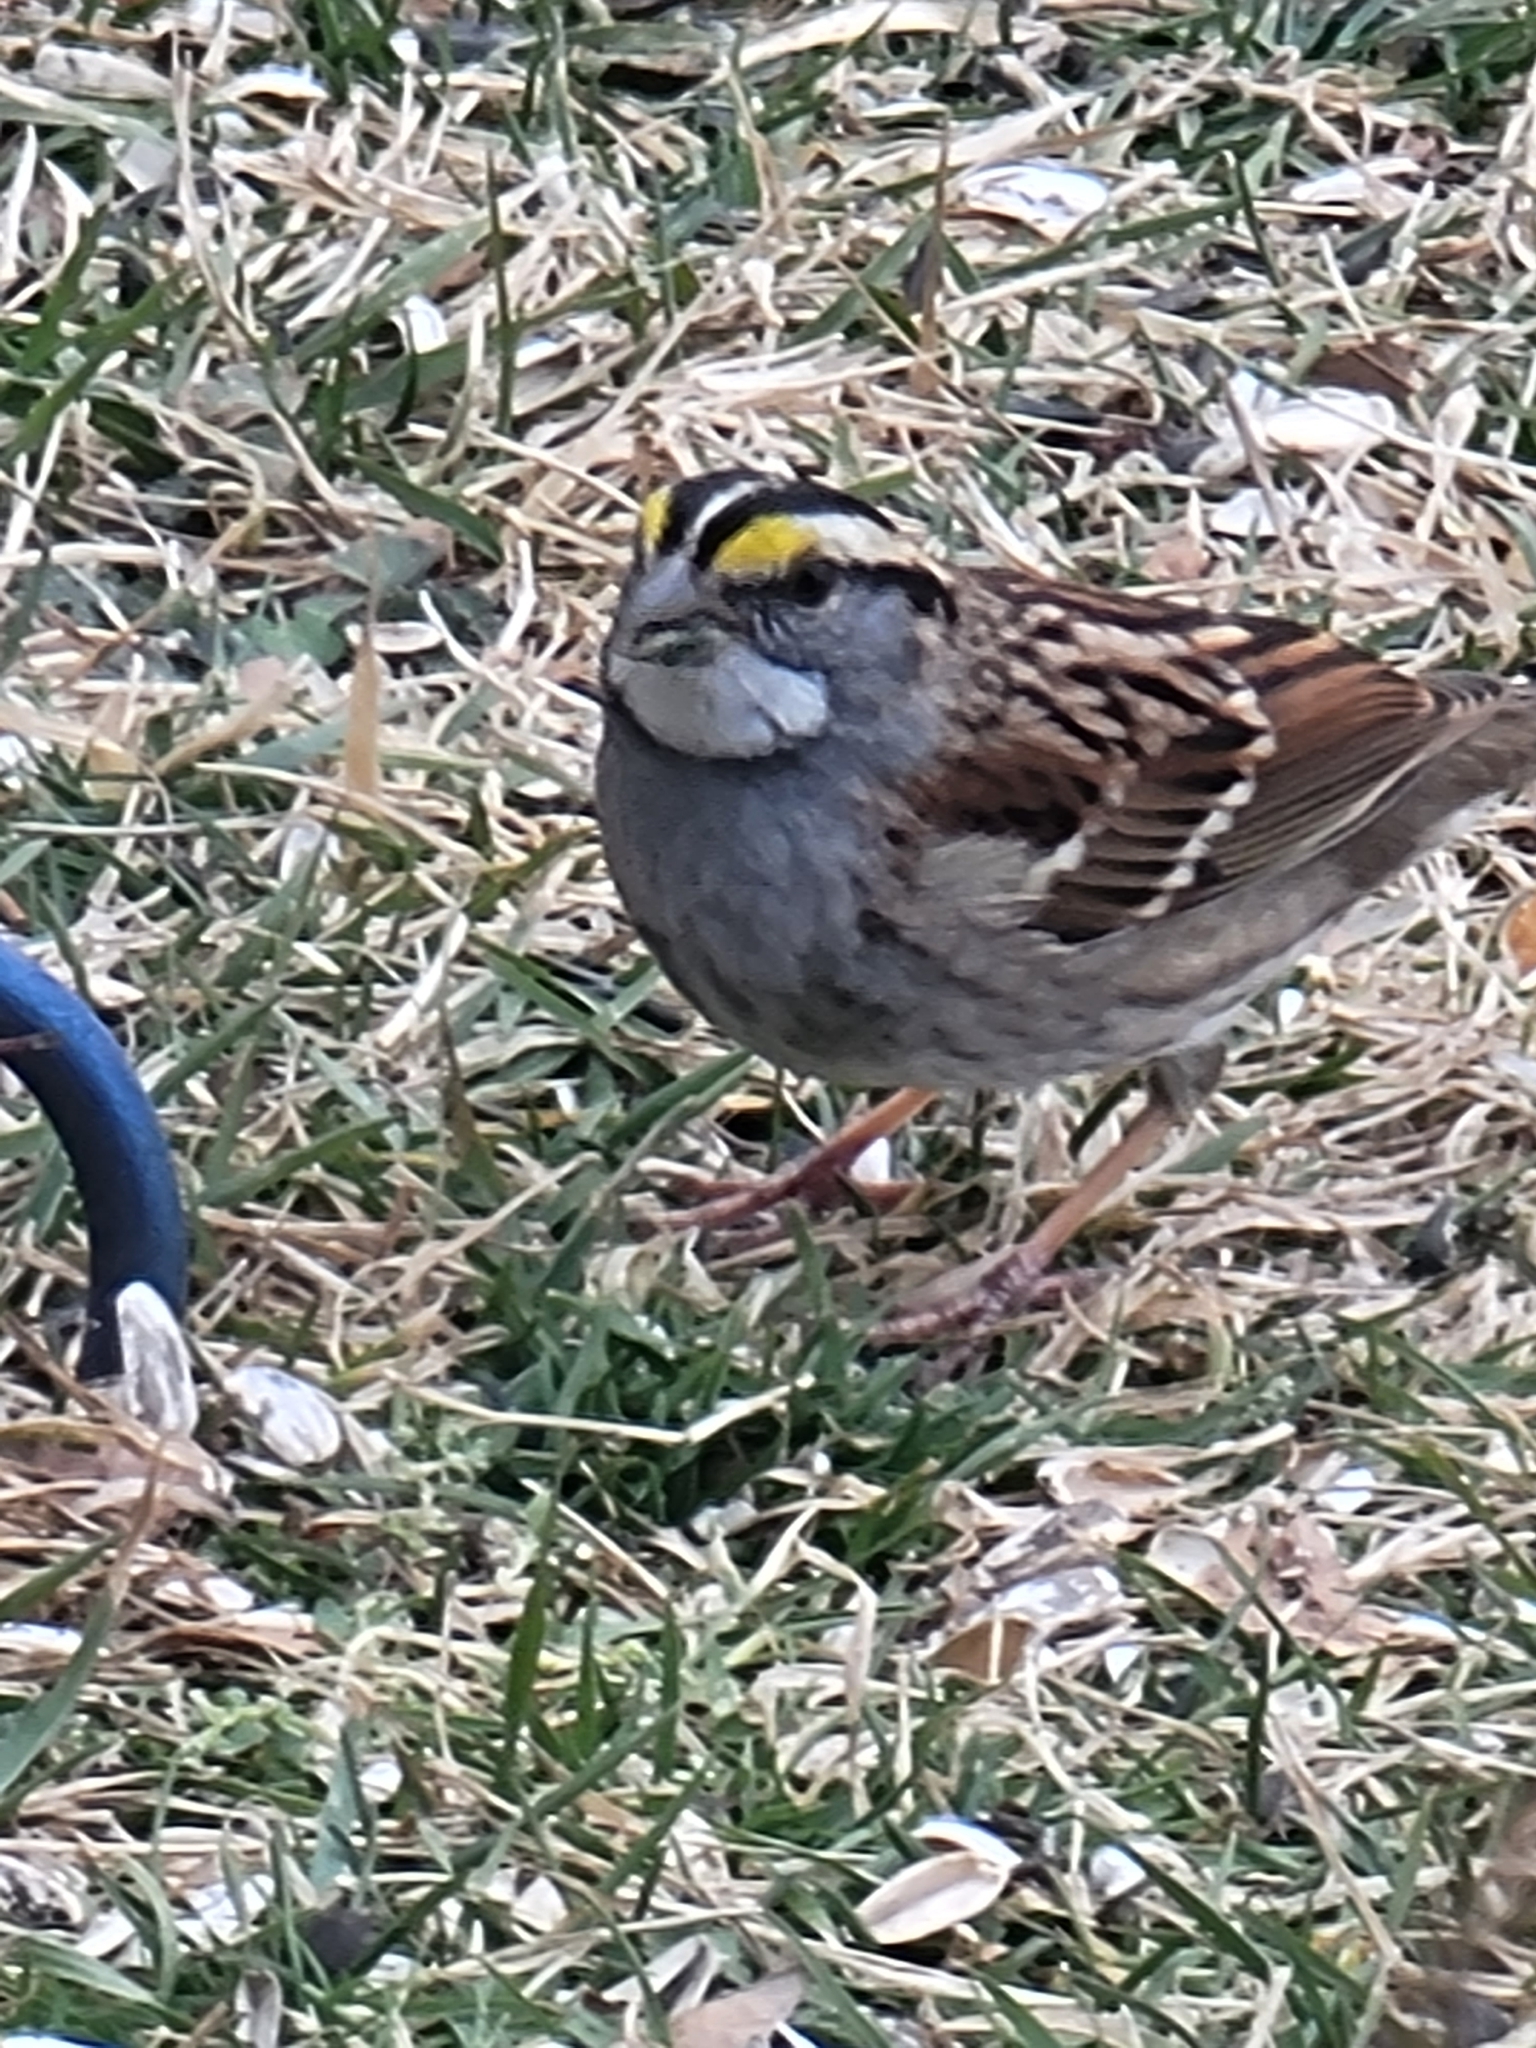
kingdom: Animalia
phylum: Chordata
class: Aves
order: Passeriformes
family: Passerellidae
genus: Zonotrichia
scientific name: Zonotrichia albicollis
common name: White-throated sparrow
